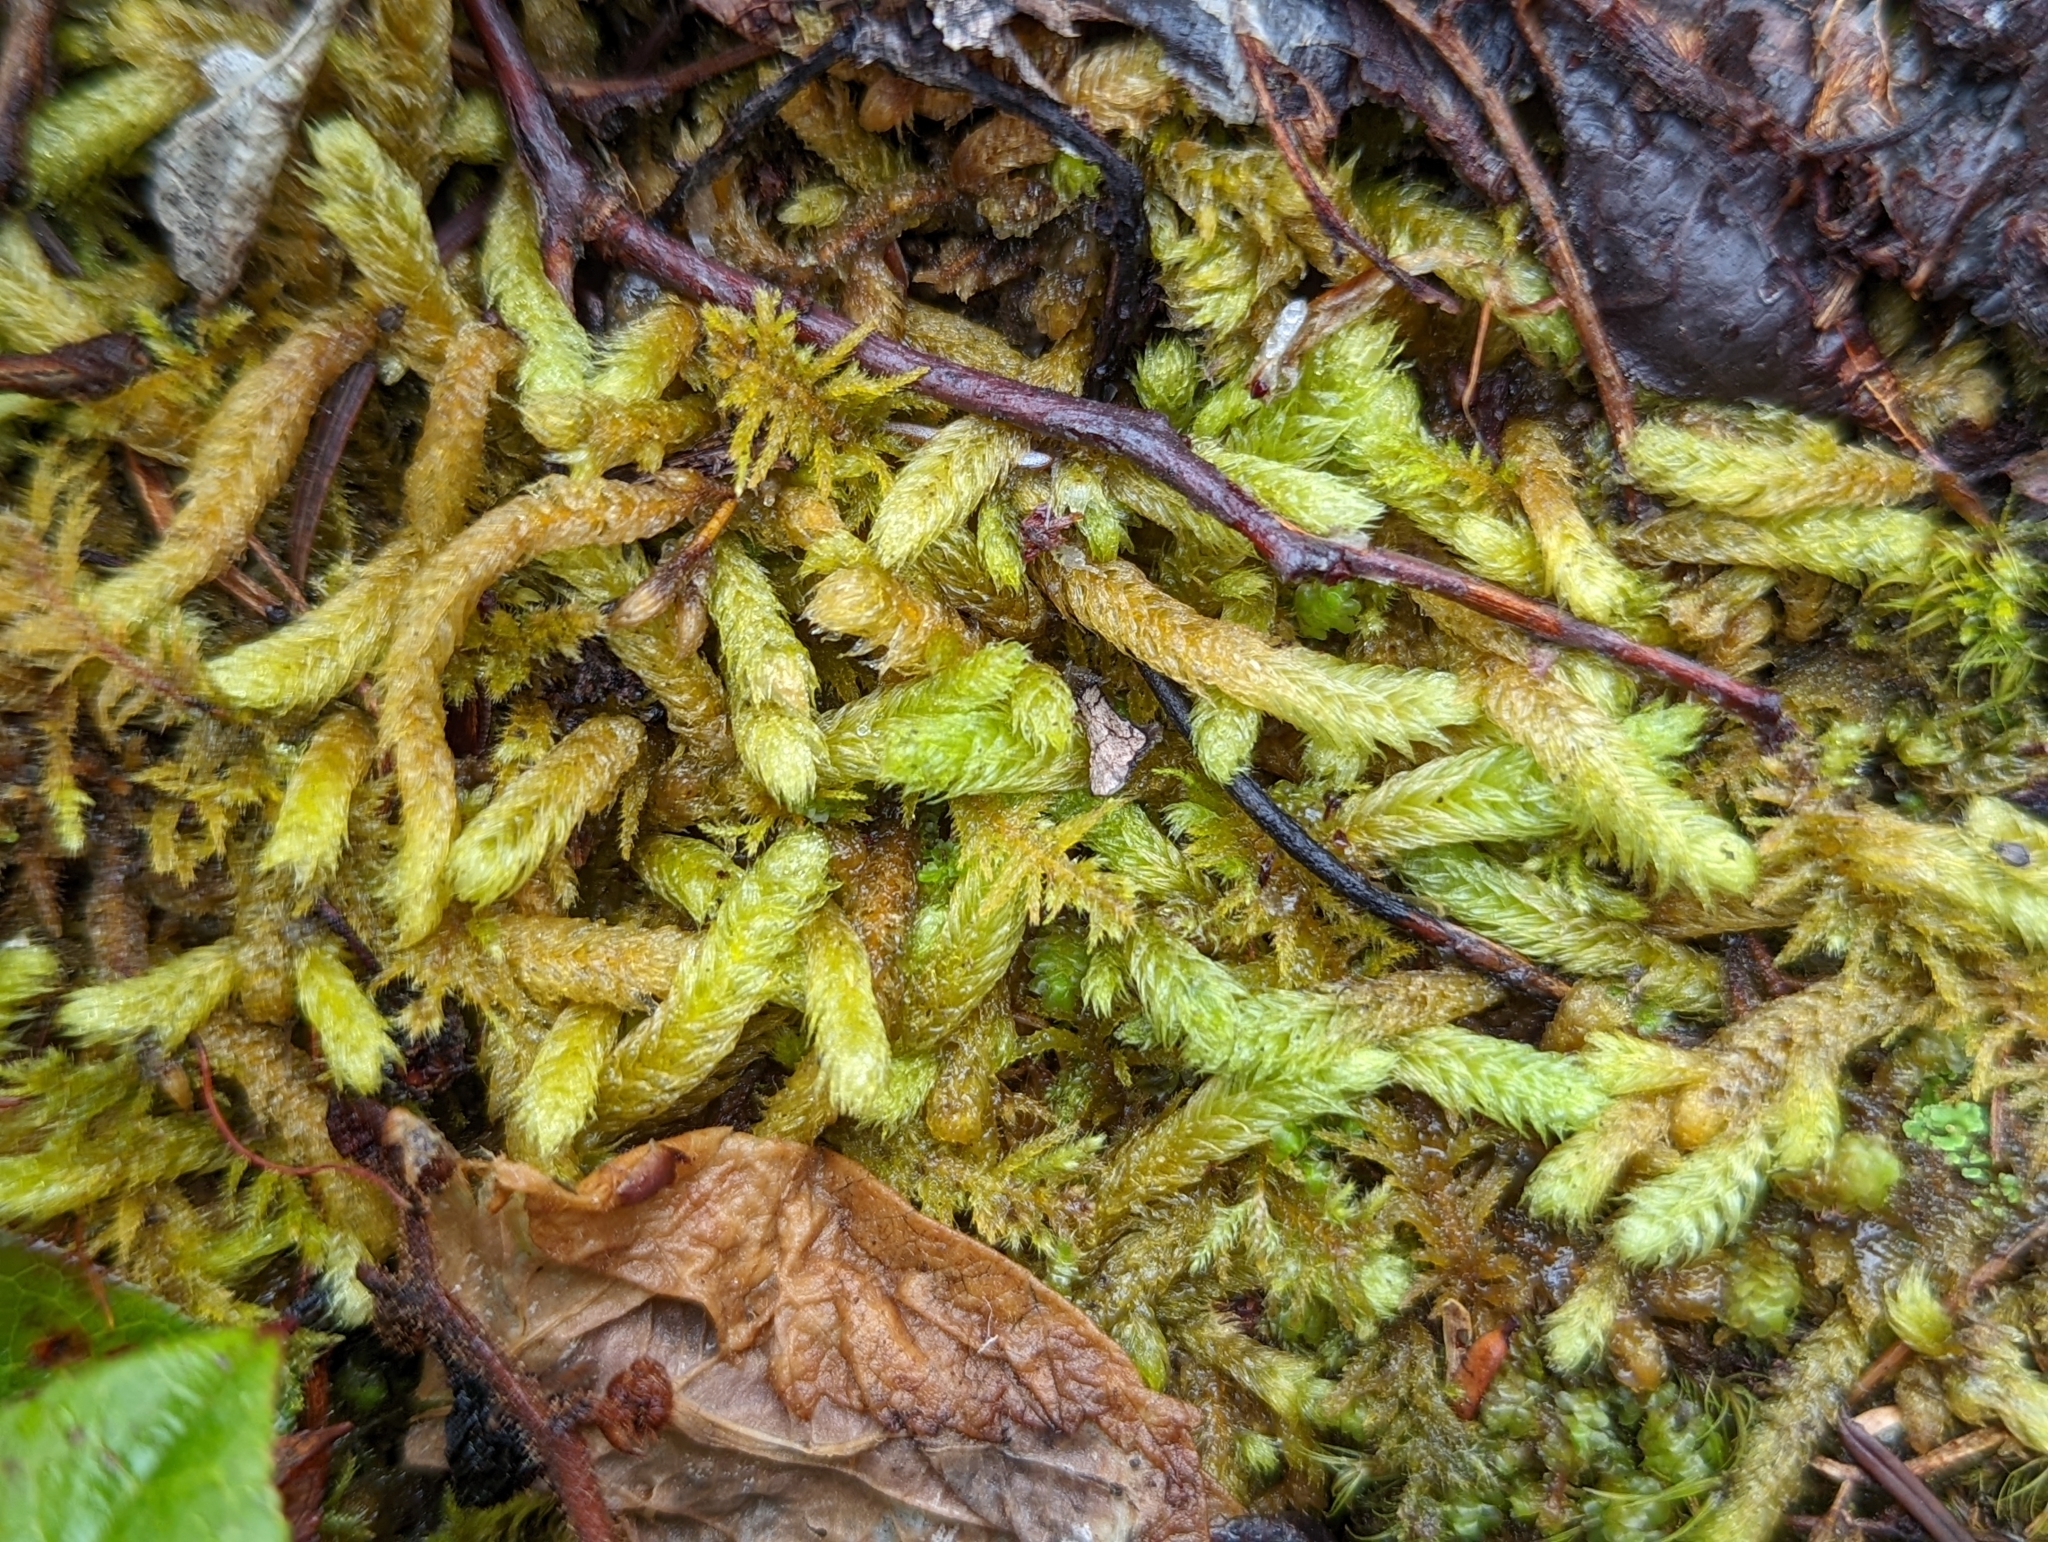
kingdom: Plantae
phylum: Bryophyta
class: Bryopsida
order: Hypnales
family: Hylocomiaceae
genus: Rhytidiopsis
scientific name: Rhytidiopsis robusta
